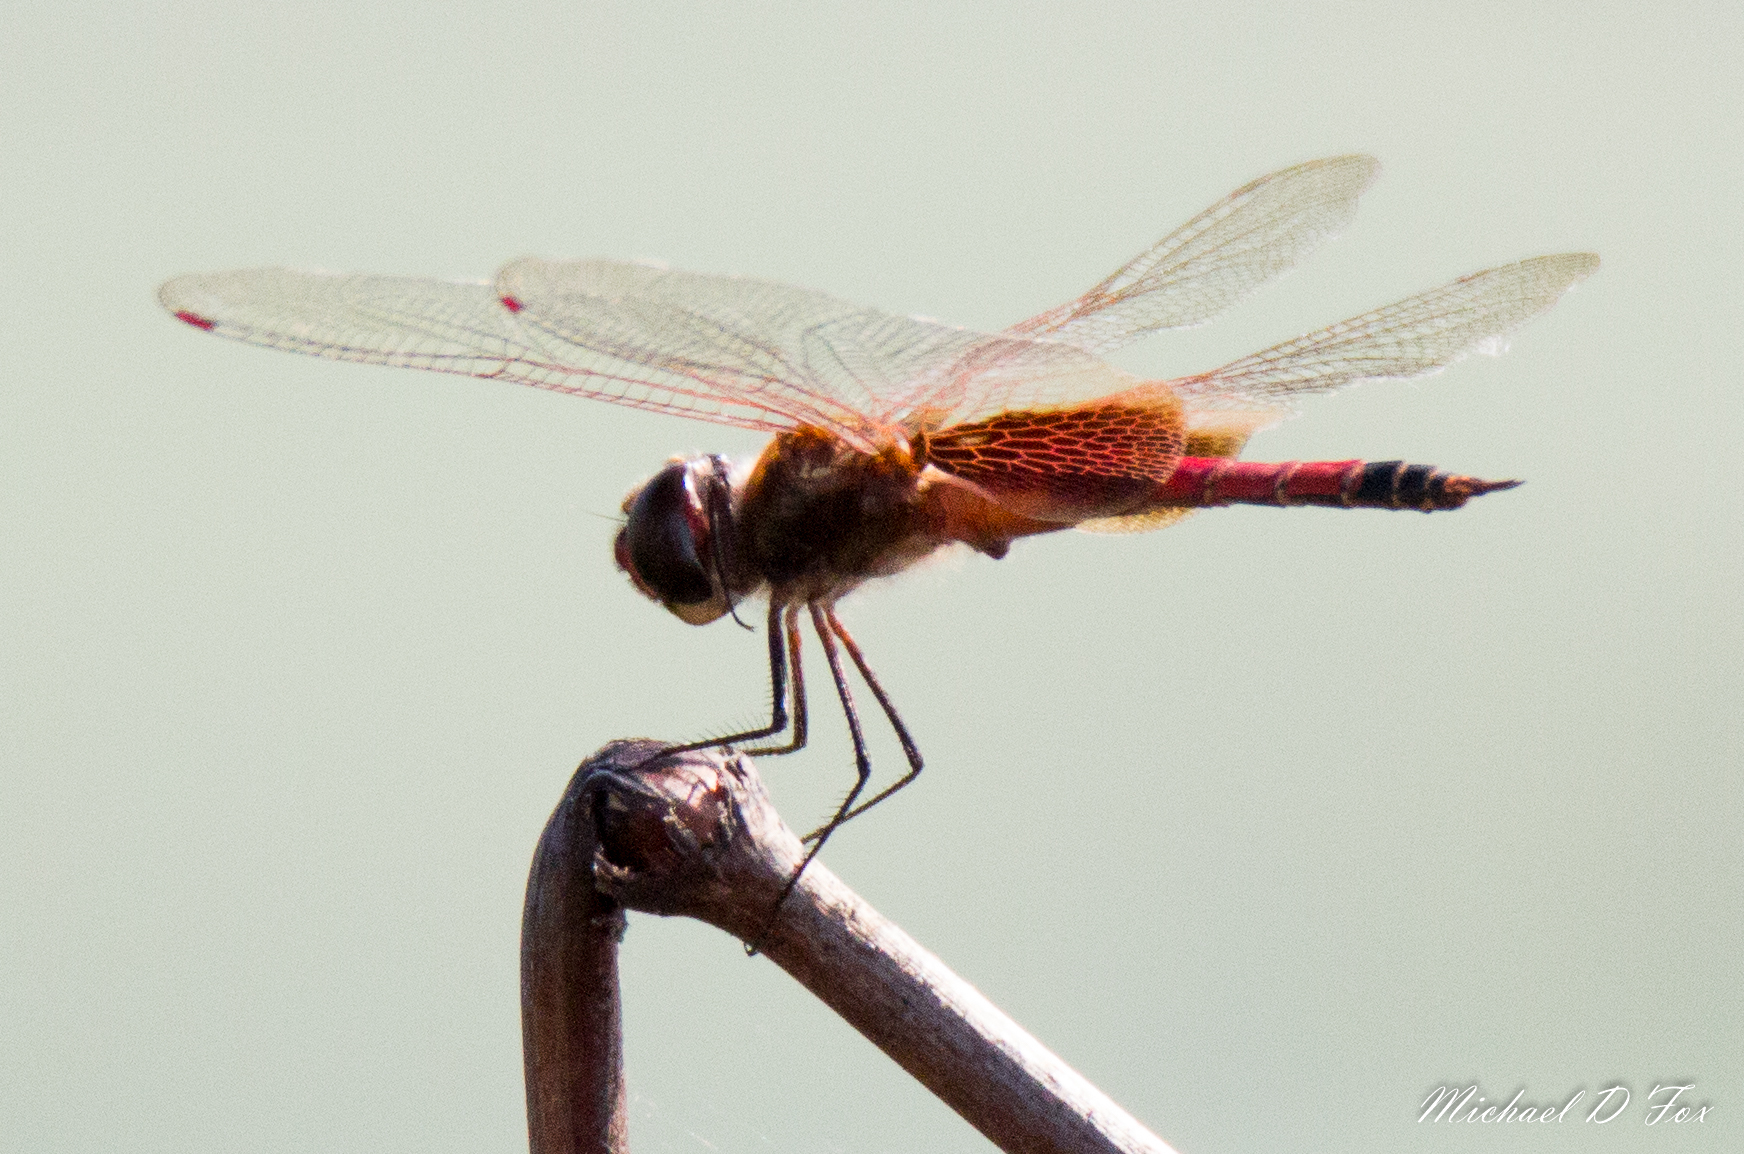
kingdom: Animalia
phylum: Arthropoda
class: Insecta
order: Odonata
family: Libellulidae
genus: Tramea
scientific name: Tramea darwini
